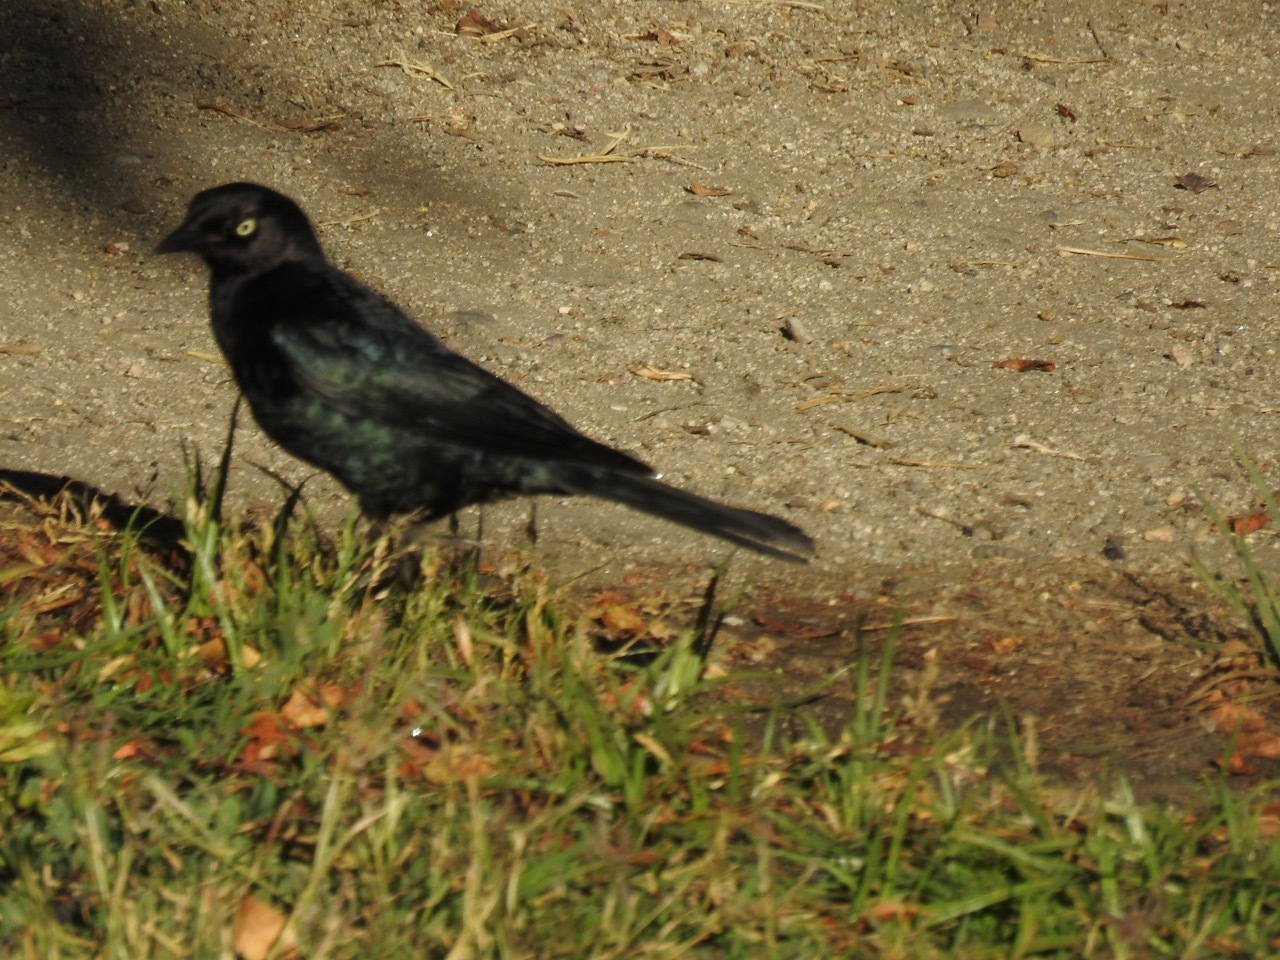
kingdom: Animalia
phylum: Chordata
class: Aves
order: Passeriformes
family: Icteridae
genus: Euphagus
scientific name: Euphagus cyanocephalus
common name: Brewer's blackbird
